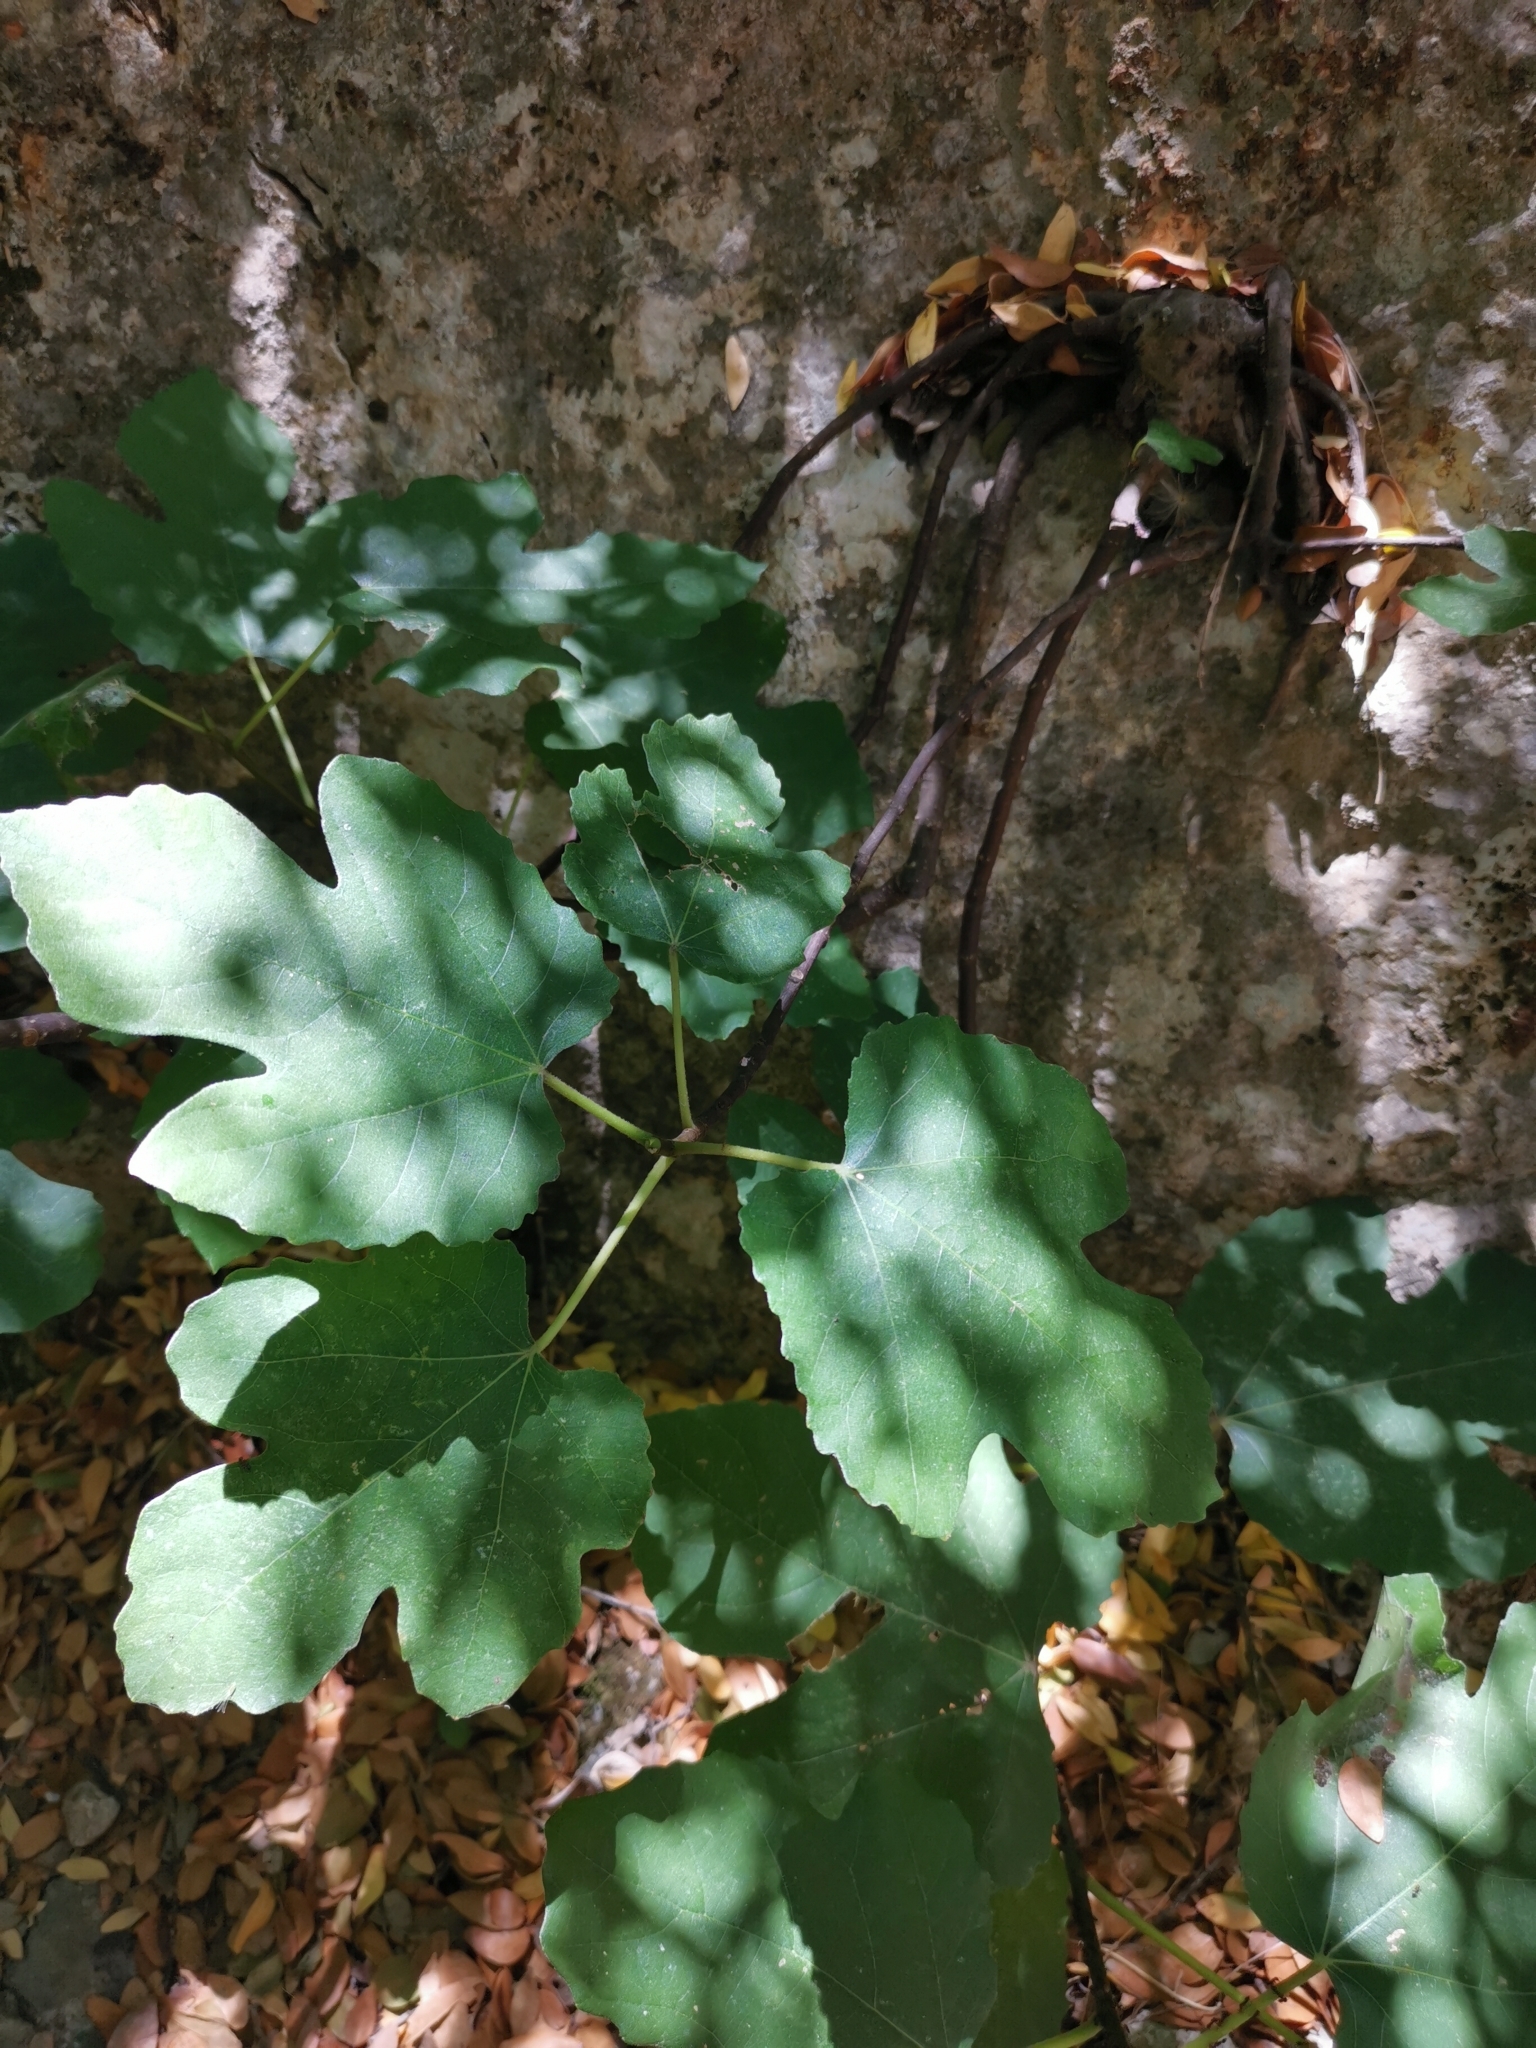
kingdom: Plantae
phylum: Tracheophyta
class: Magnoliopsida
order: Rosales
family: Moraceae
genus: Ficus
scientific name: Ficus carica
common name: Fig
